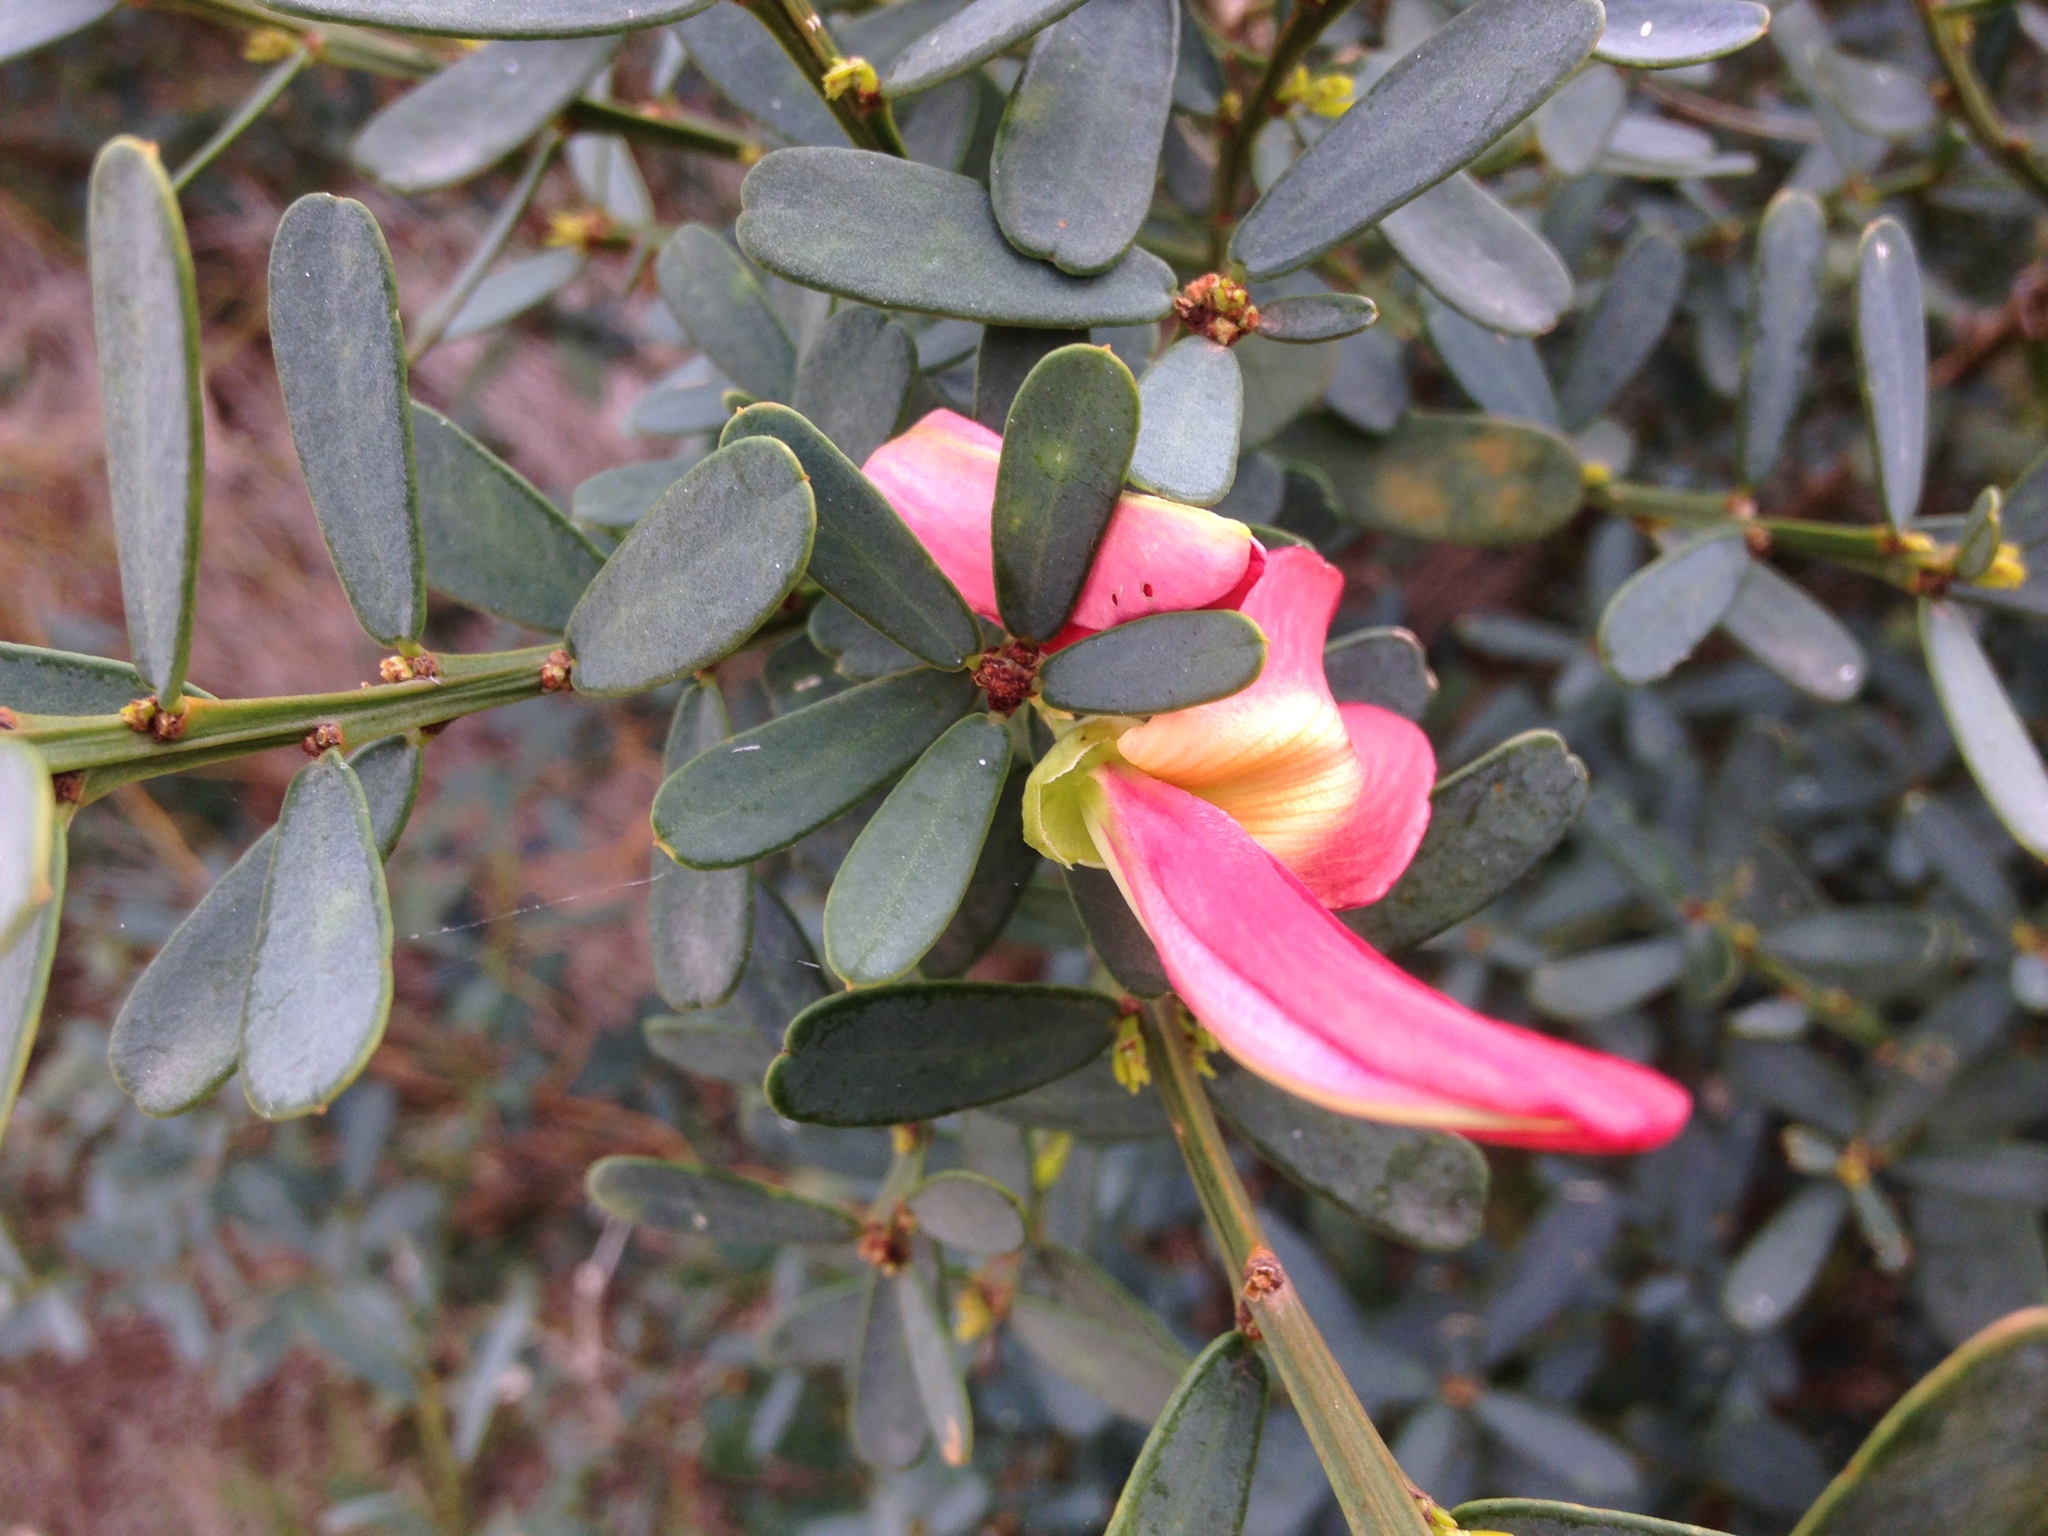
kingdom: Plantae
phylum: Tracheophyta
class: Magnoliopsida
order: Fabales
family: Fabaceae
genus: Templetonia
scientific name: Templetonia retusa
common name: Cockies'-tongue
